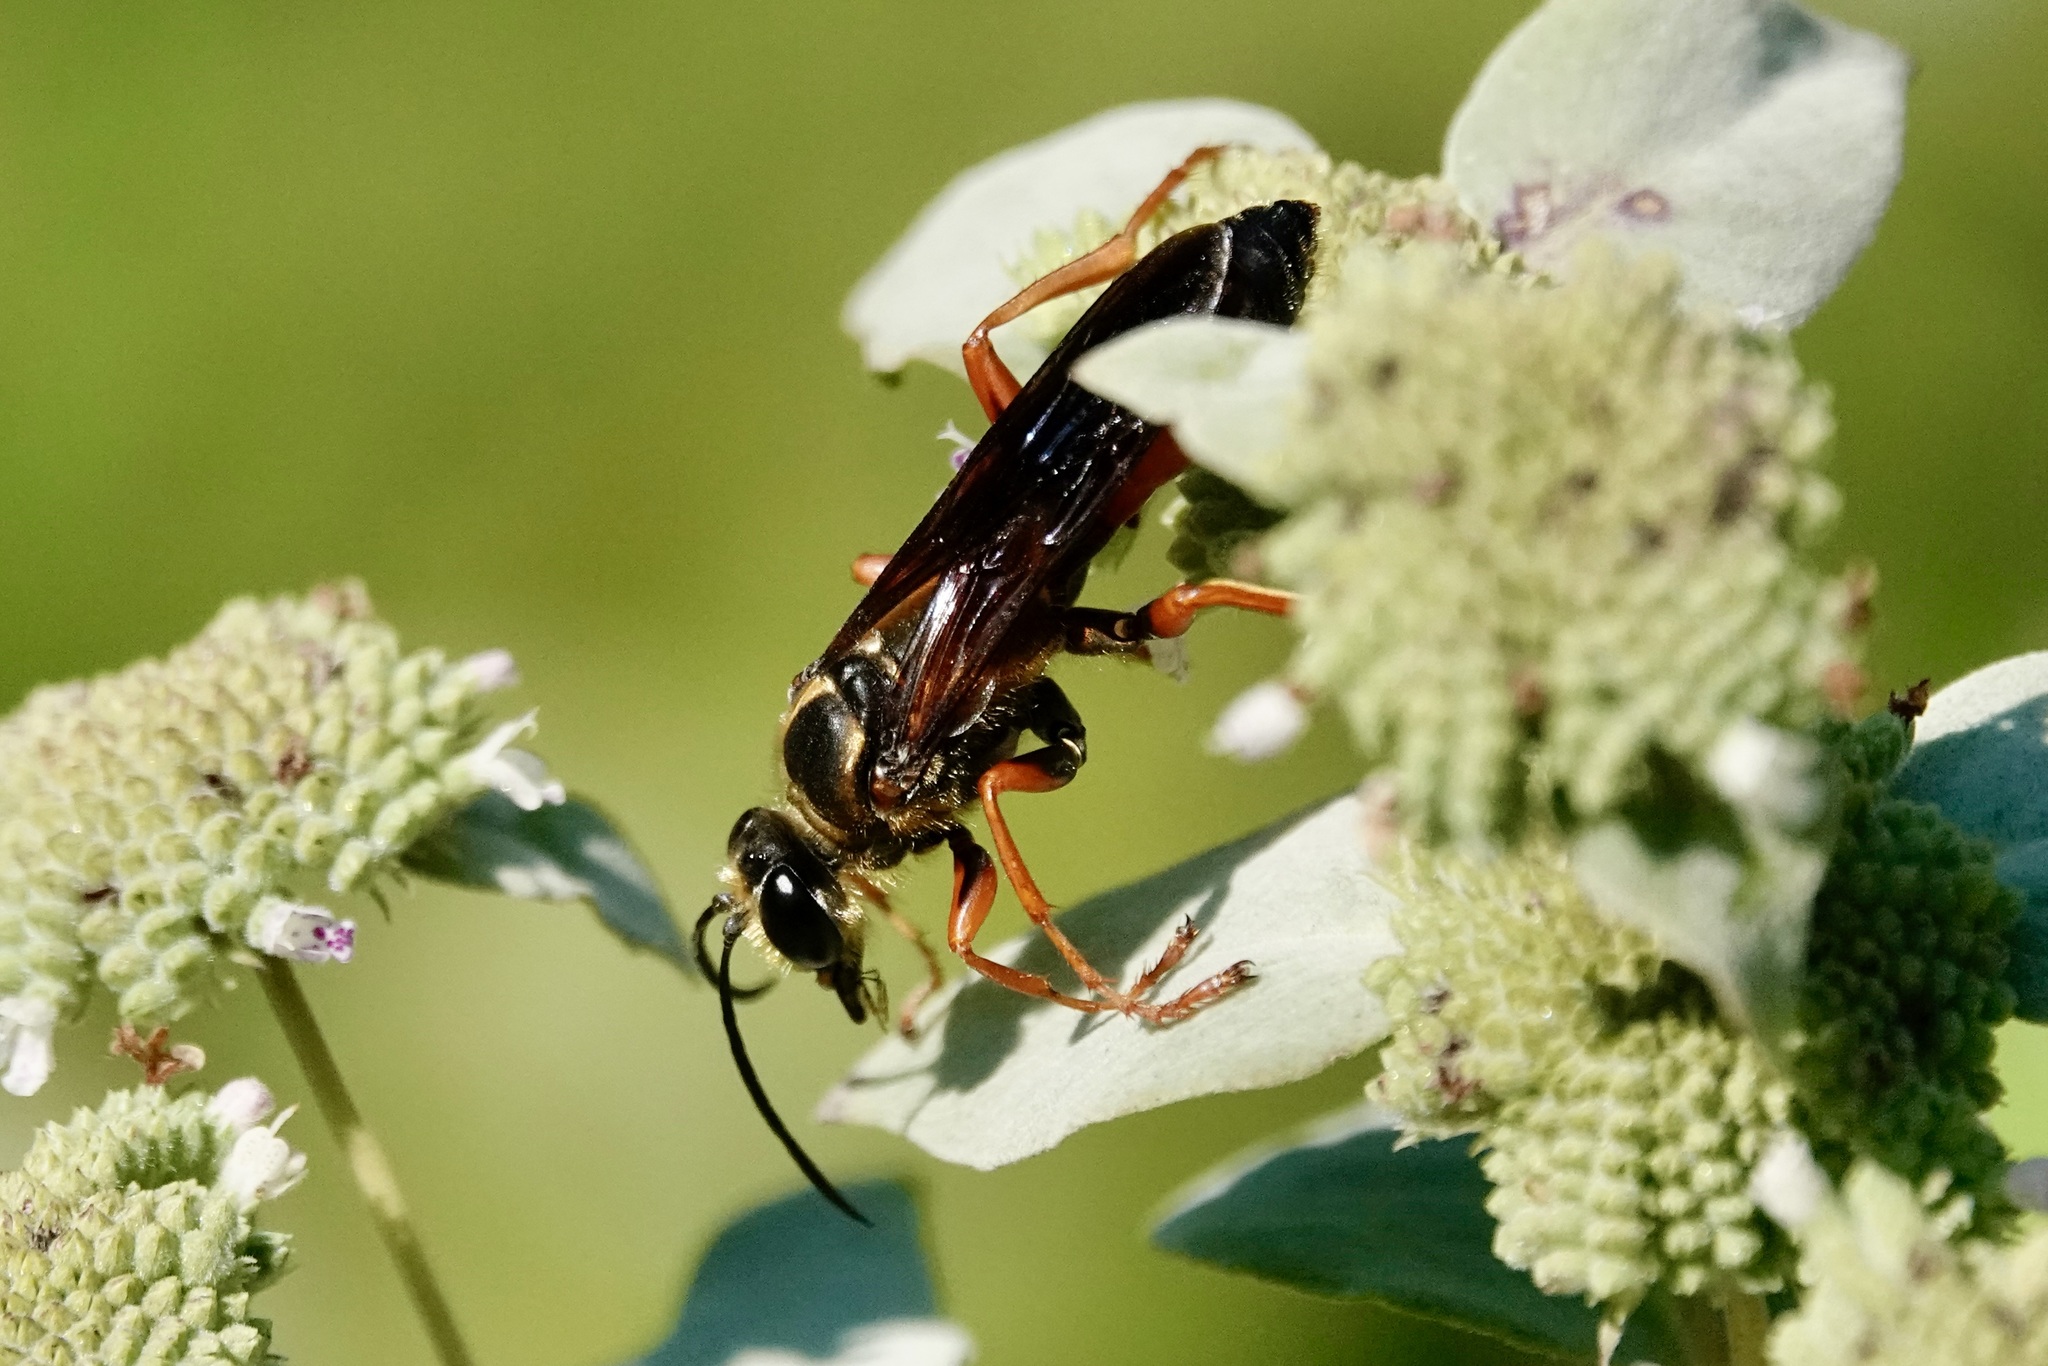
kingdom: Animalia
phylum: Arthropoda
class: Insecta
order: Hymenoptera
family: Sphecidae
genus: Sphex
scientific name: Sphex ichneumoneus
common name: Great golden digger wasp
